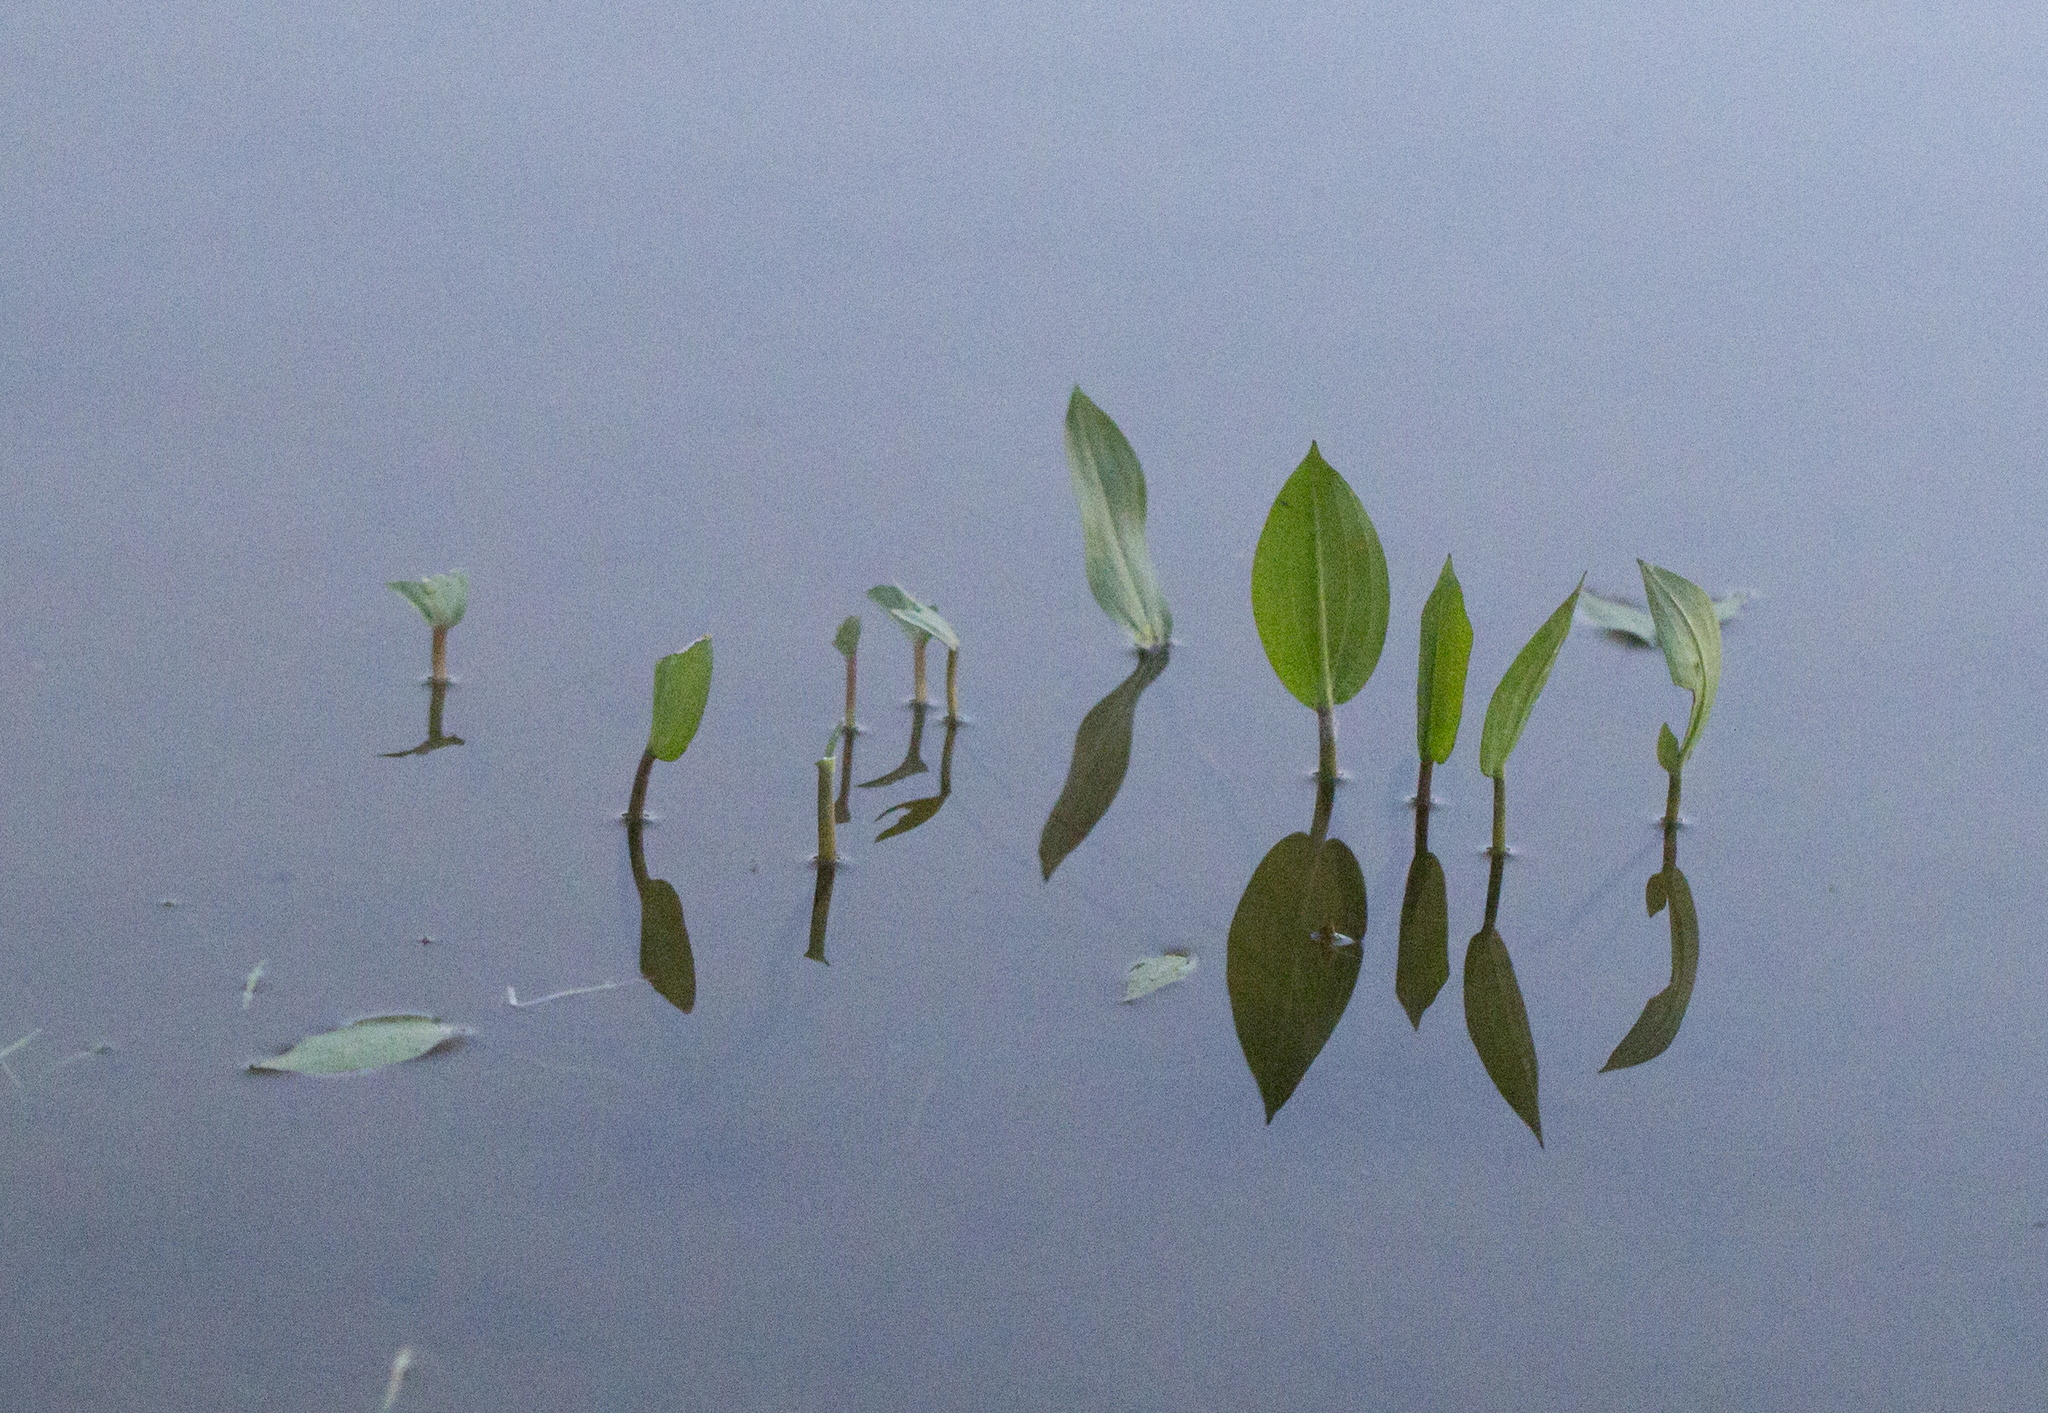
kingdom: Plantae
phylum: Tracheophyta
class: Liliopsida
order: Alismatales
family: Alismataceae
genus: Alisma
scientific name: Alisma plantago-aquatica
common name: Water-plantain
